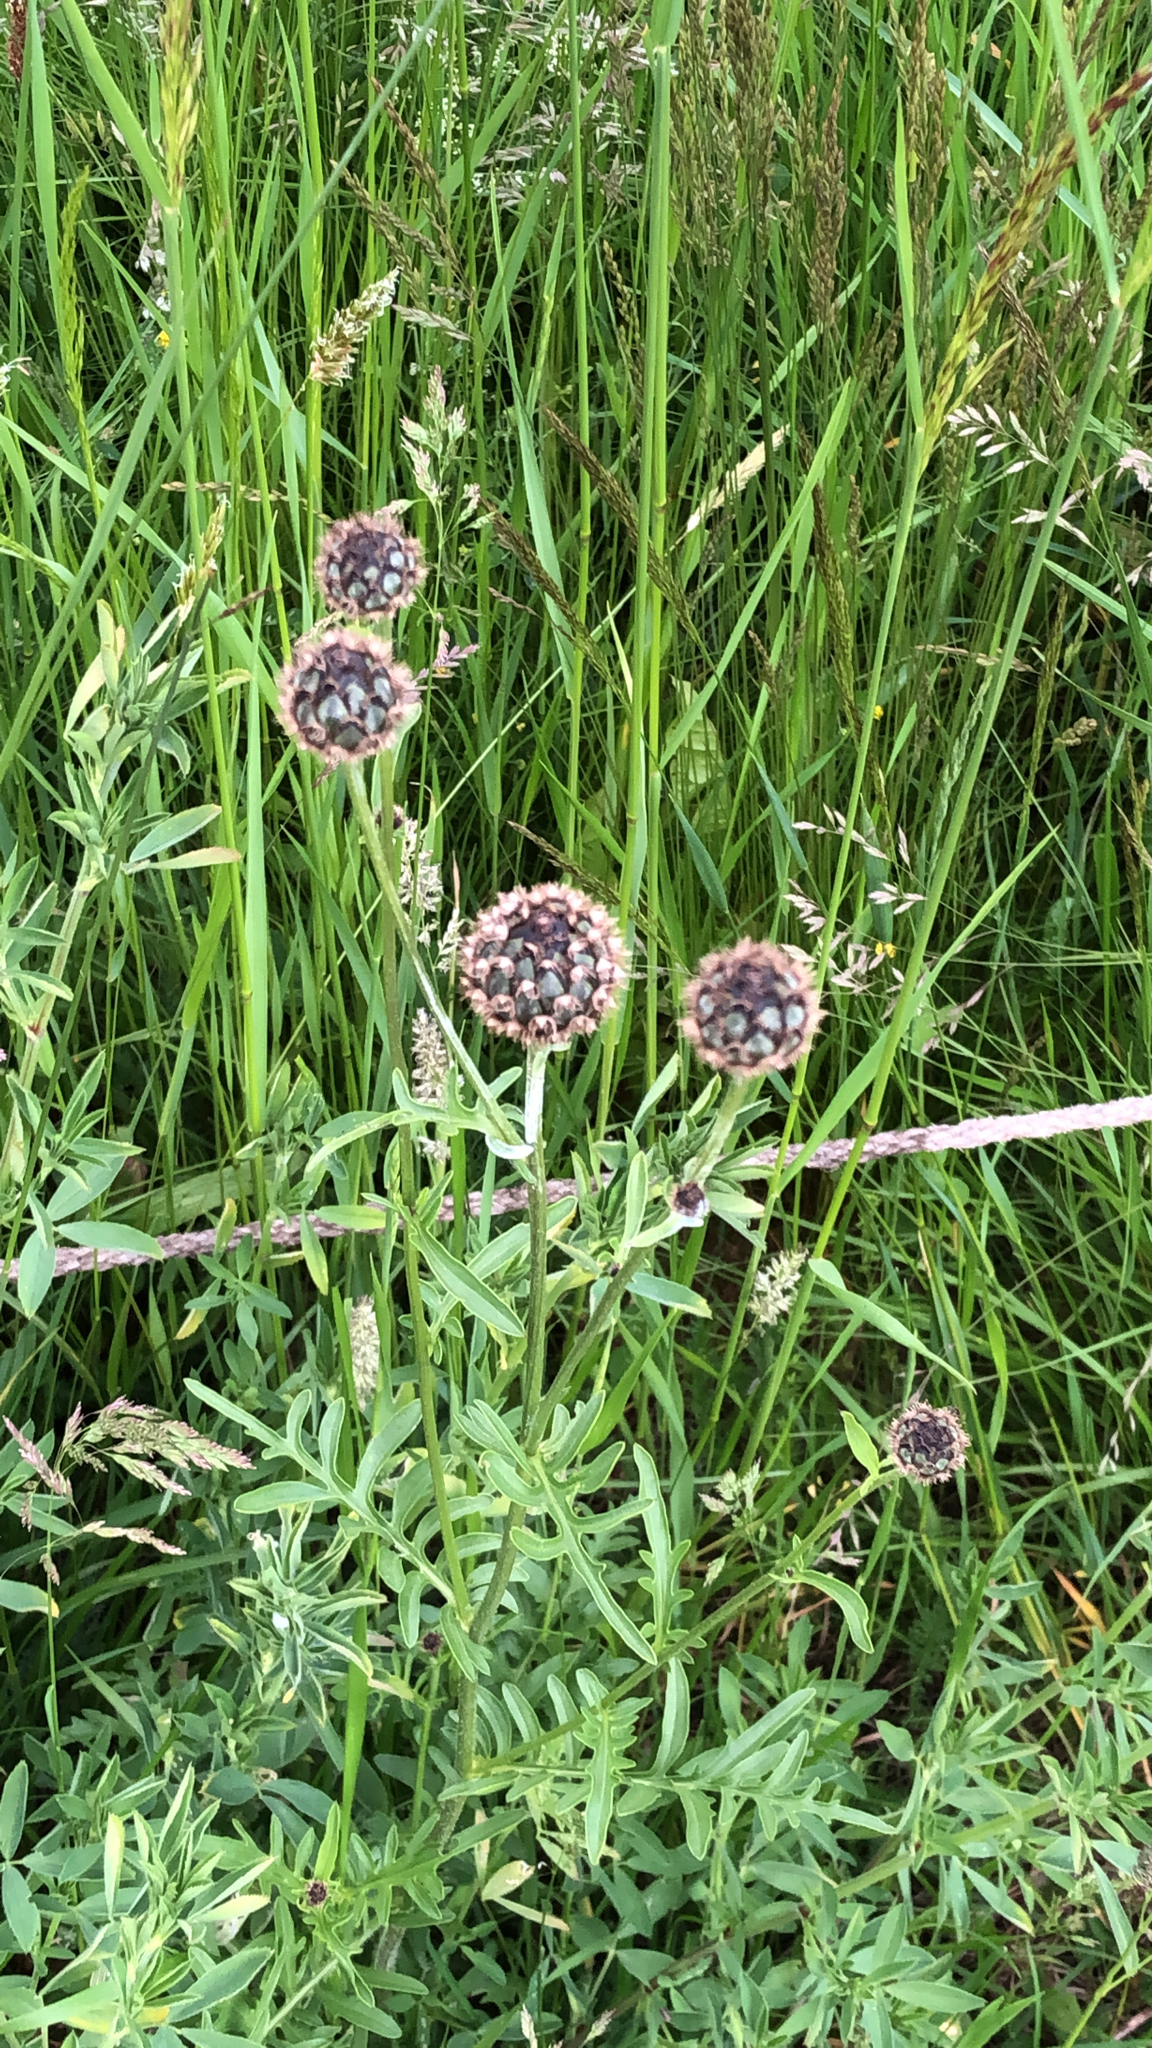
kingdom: Plantae
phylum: Tracheophyta
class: Magnoliopsida
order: Asterales
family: Asteraceae
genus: Centaurea
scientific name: Centaurea scabiosa
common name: Greater knapweed
